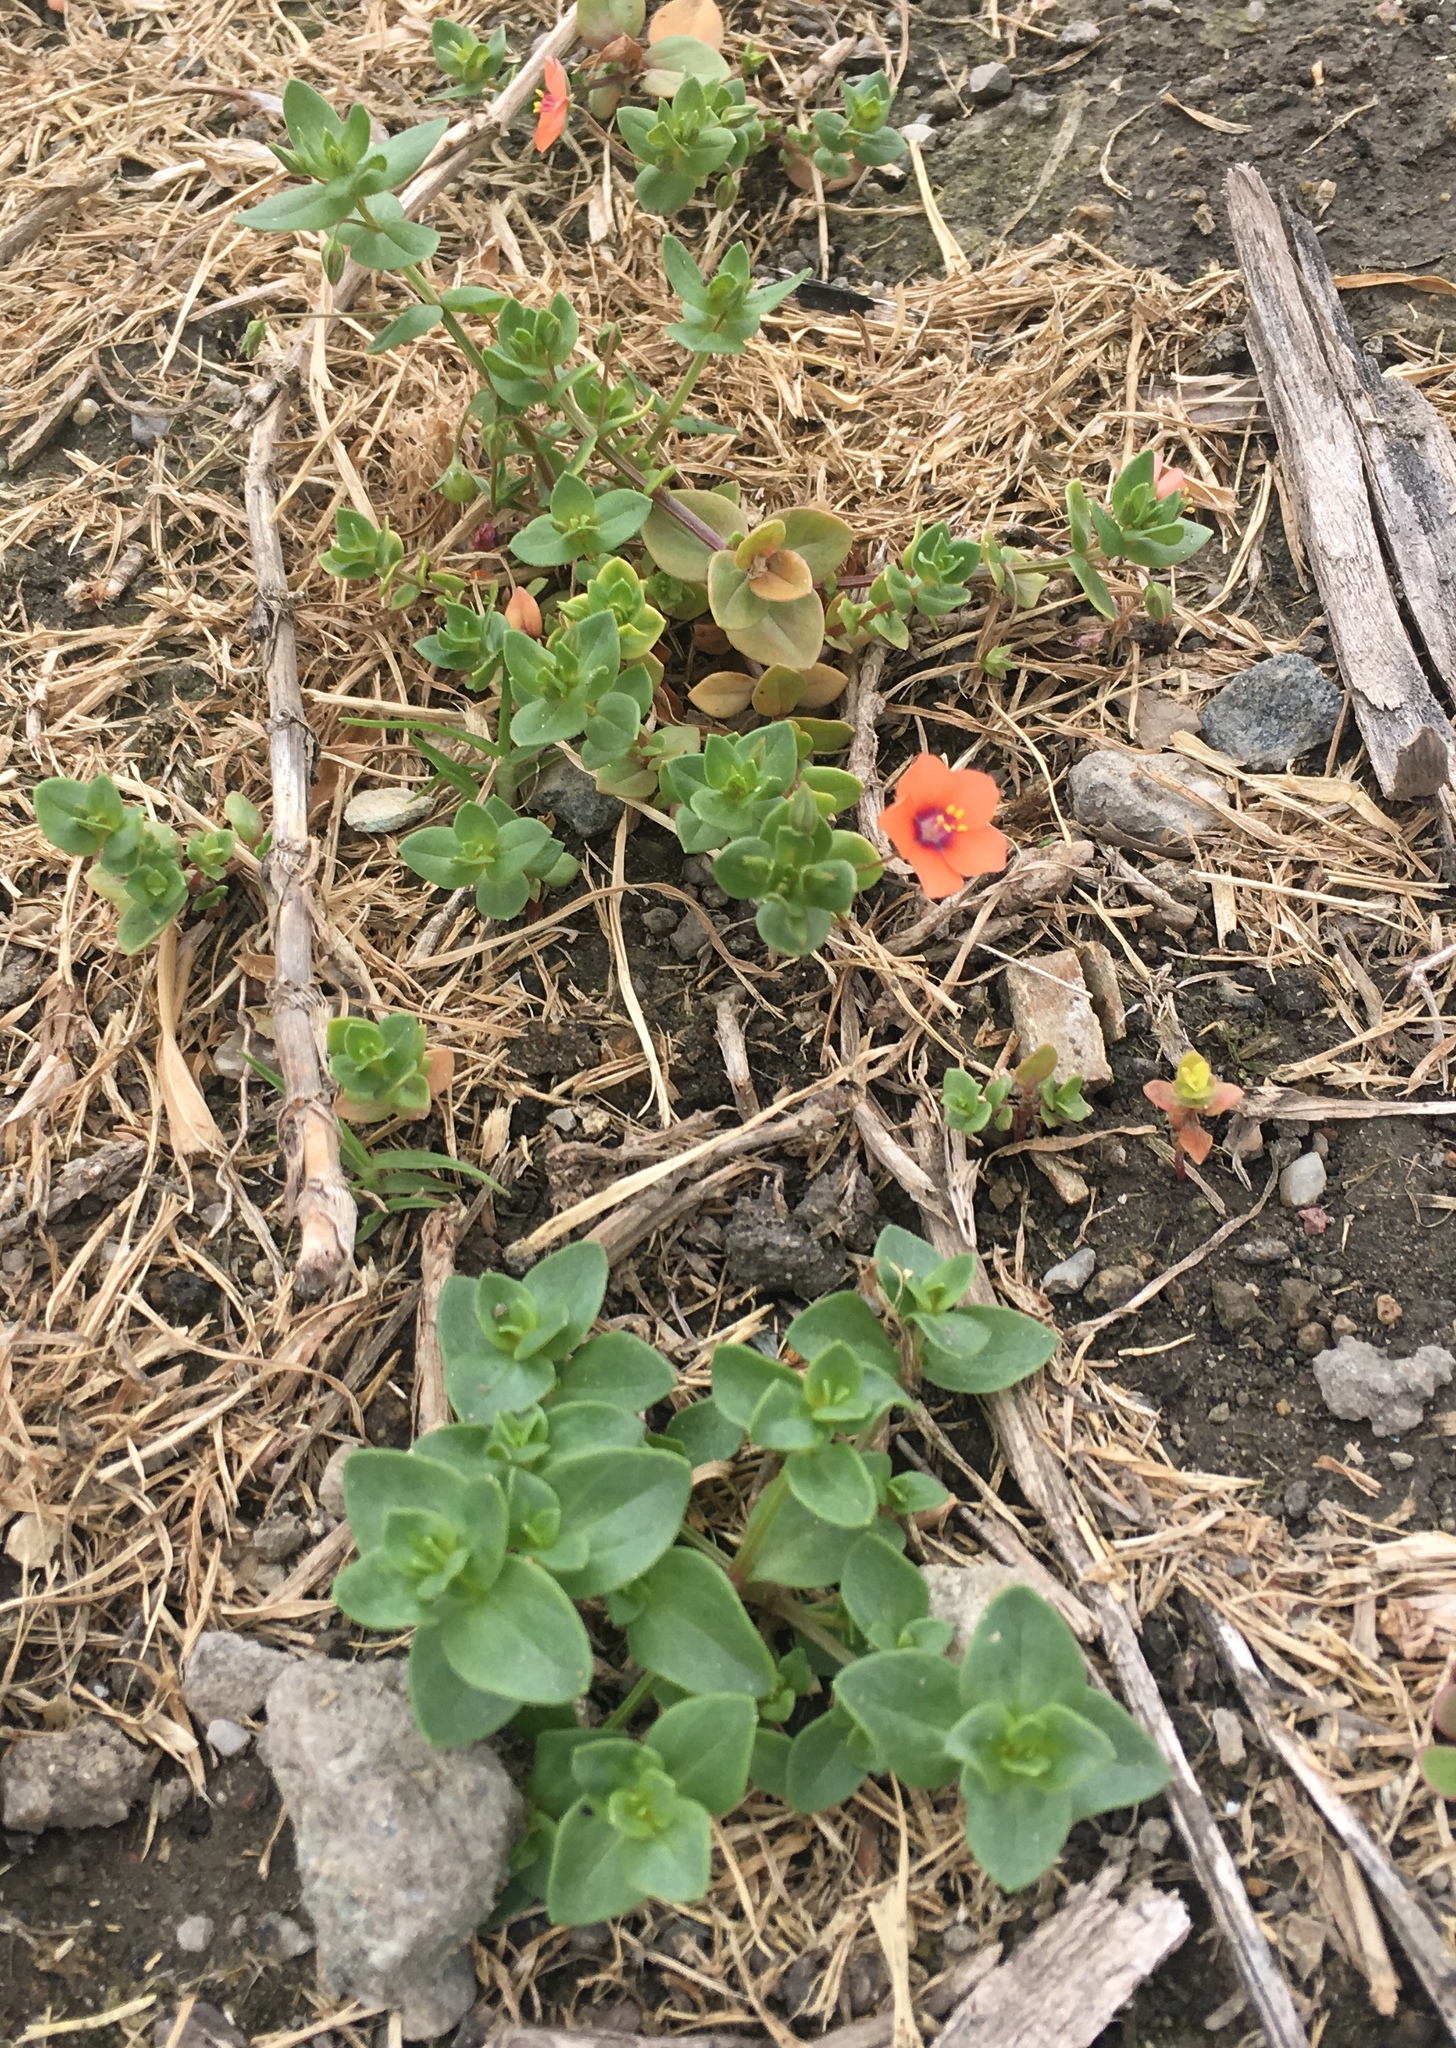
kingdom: Plantae
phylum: Tracheophyta
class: Magnoliopsida
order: Ericales
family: Primulaceae
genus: Lysimachia
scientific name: Lysimachia arvensis
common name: Scarlet pimpernel
